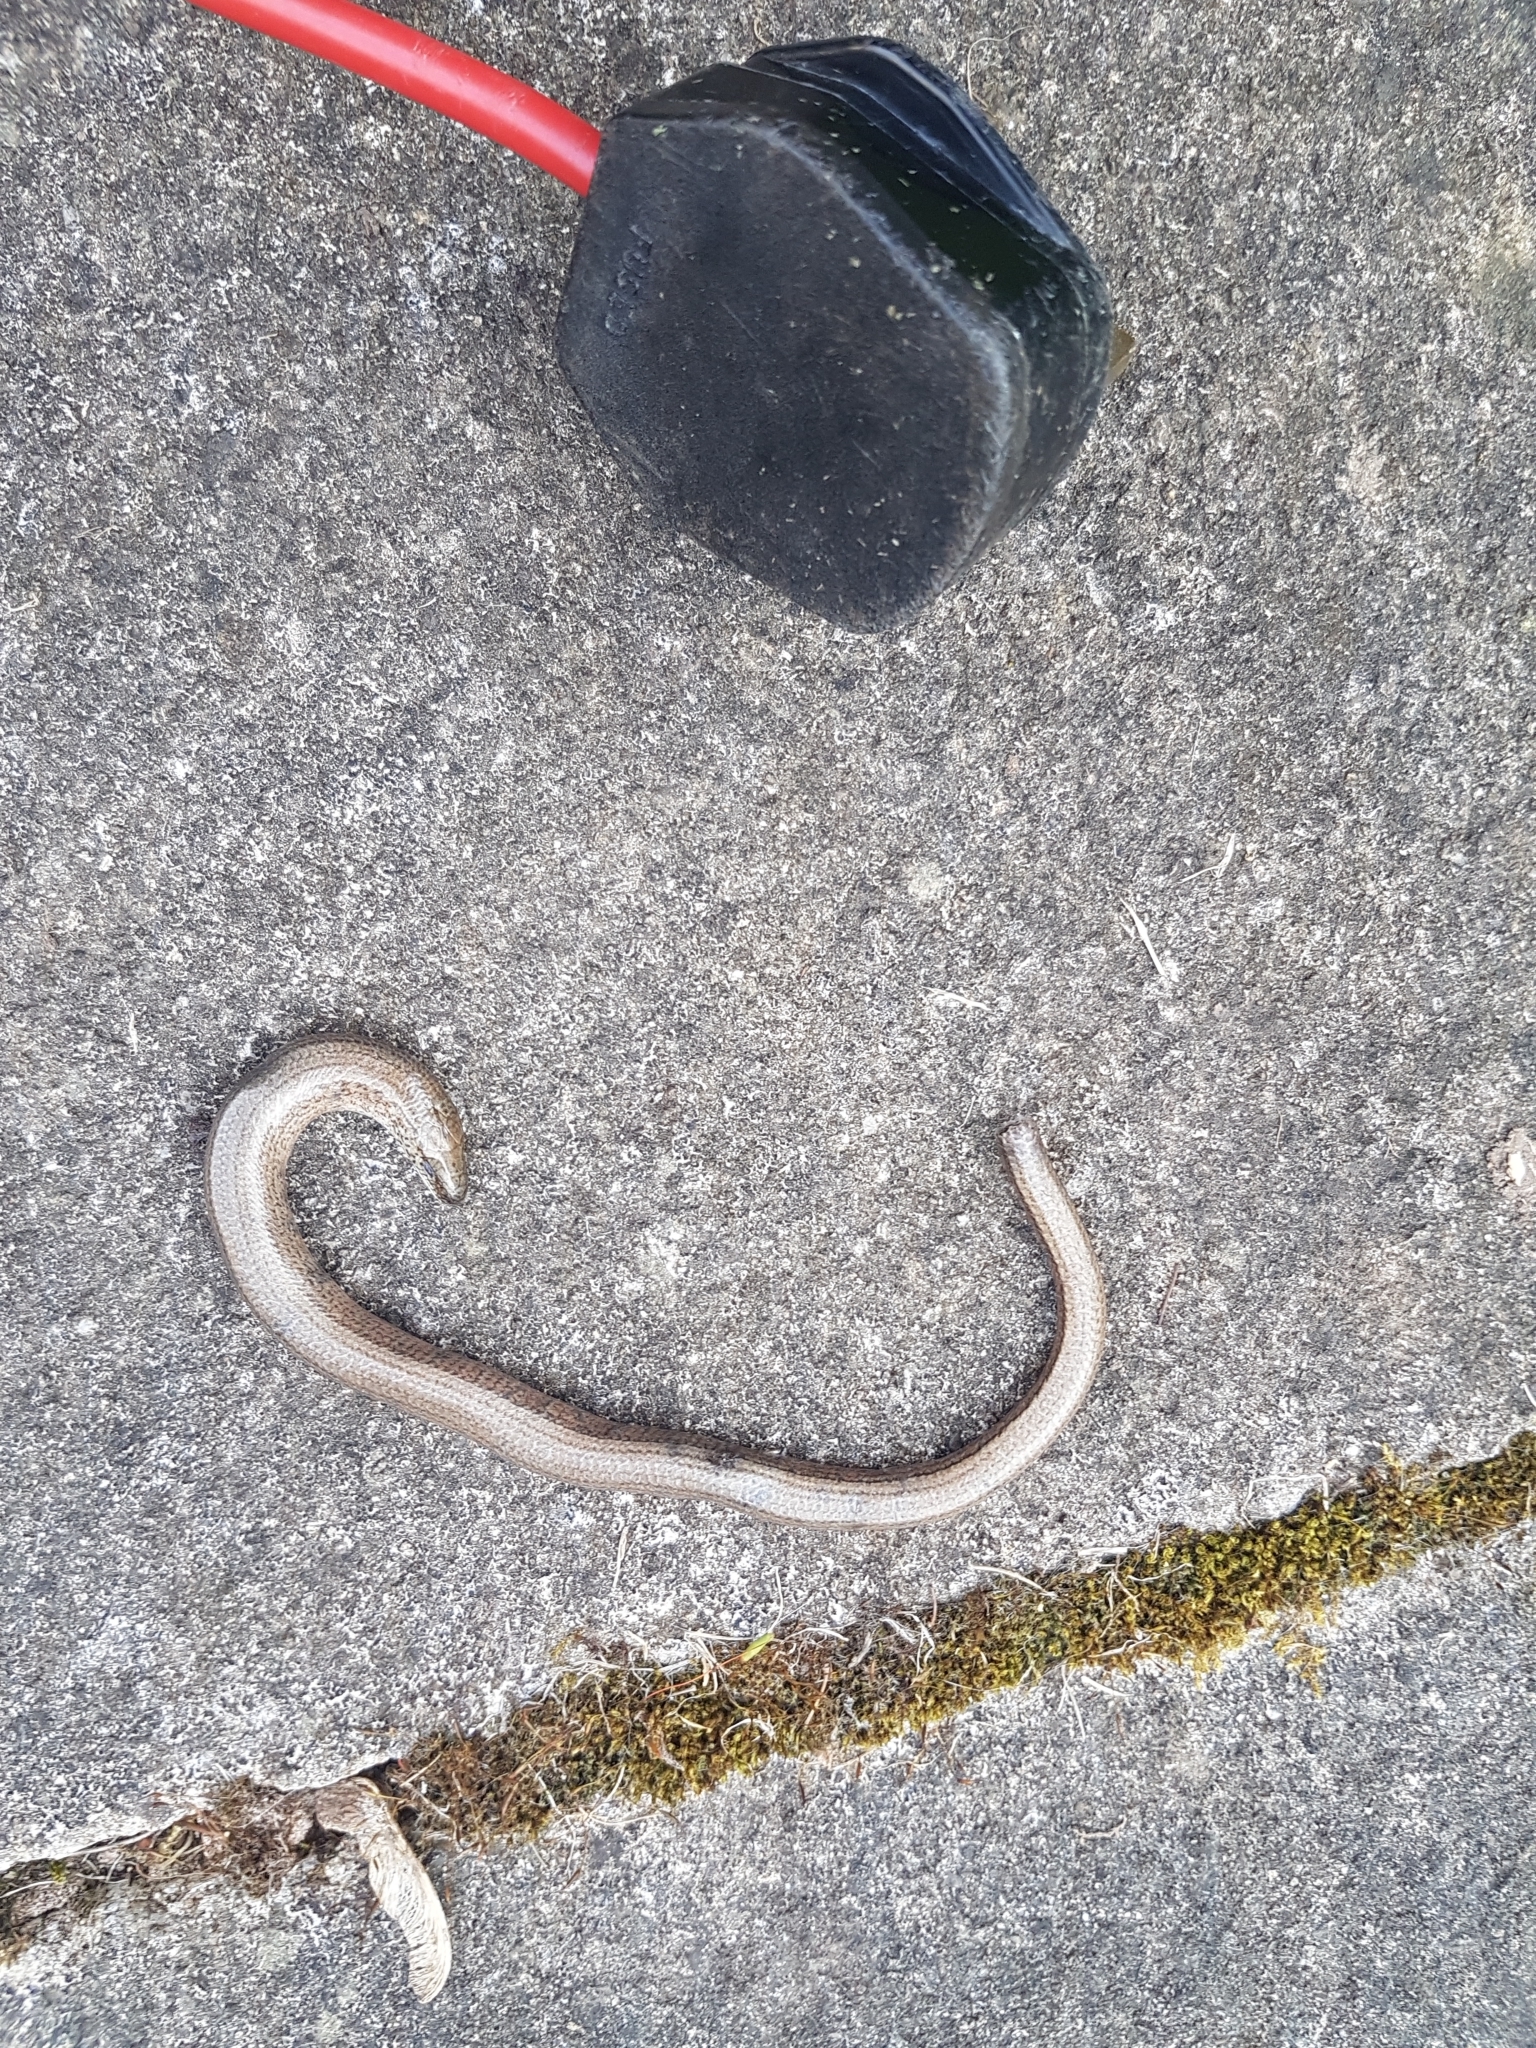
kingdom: Animalia
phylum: Chordata
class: Squamata
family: Anguidae
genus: Anguis
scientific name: Anguis fragilis
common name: Slow worm
